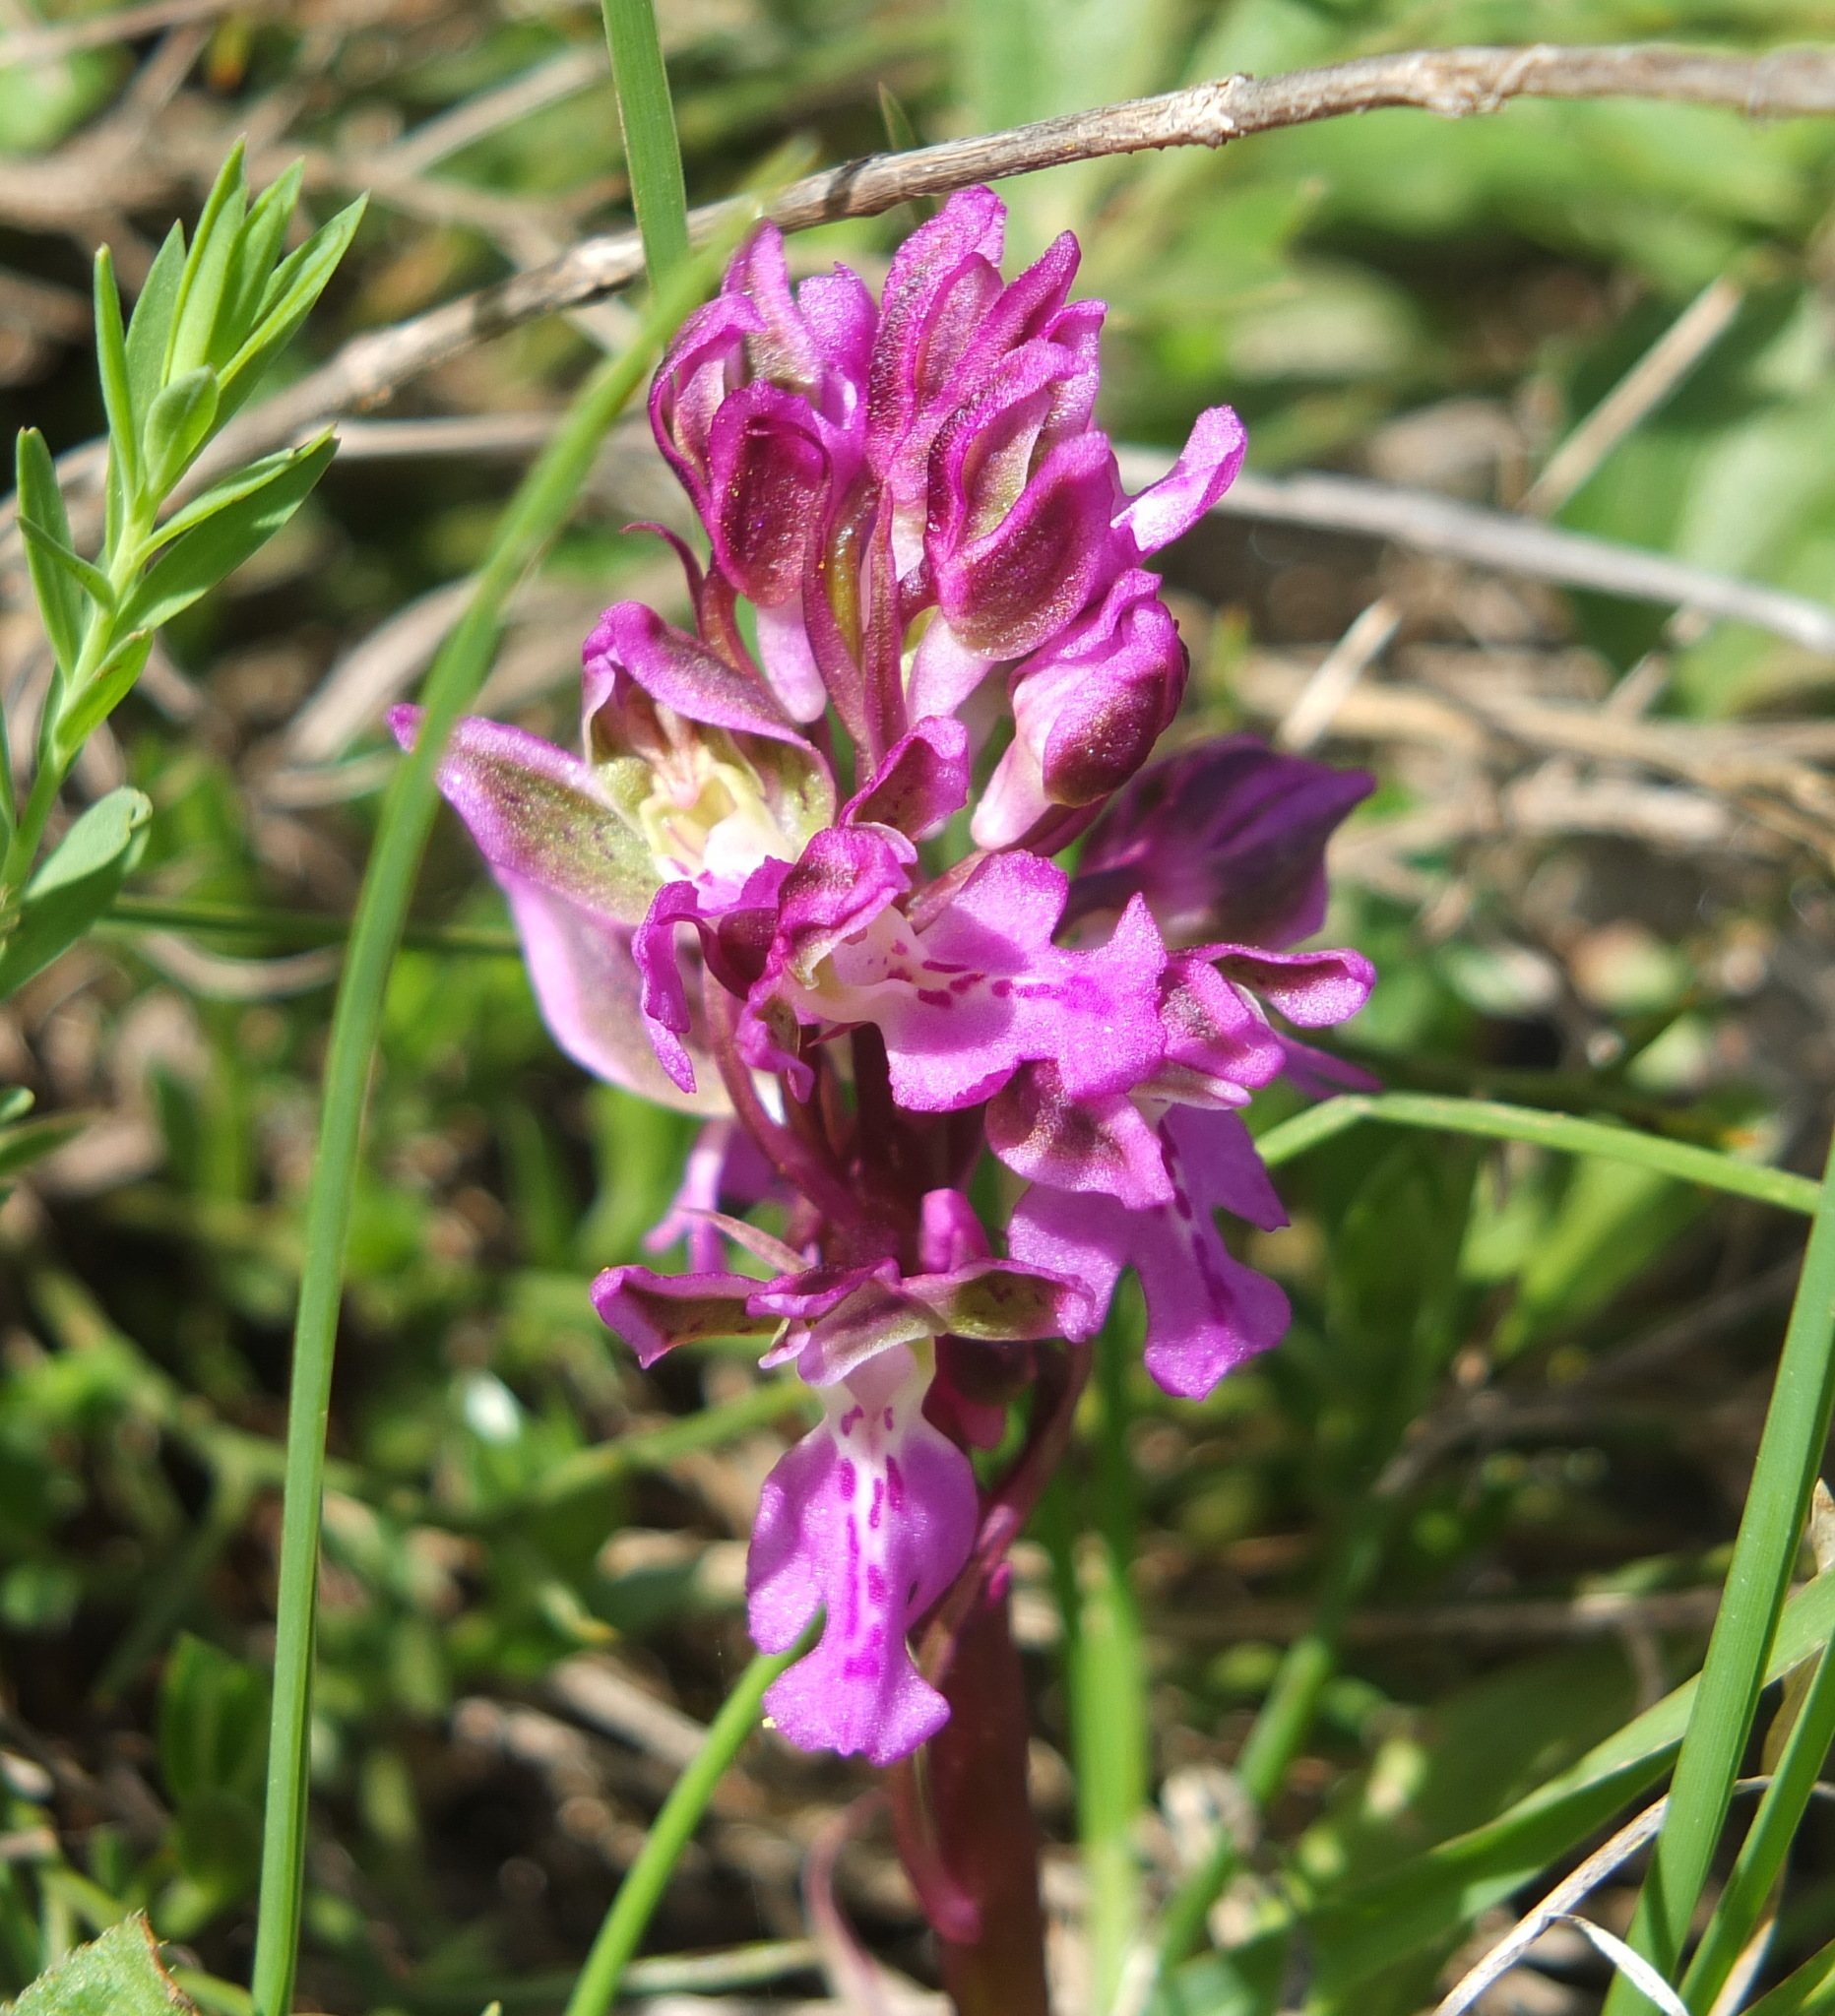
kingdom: Plantae
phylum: Tracheophyta
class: Liliopsida
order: Asparagales
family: Orchidaceae
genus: Orchis
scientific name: Orchis patens
